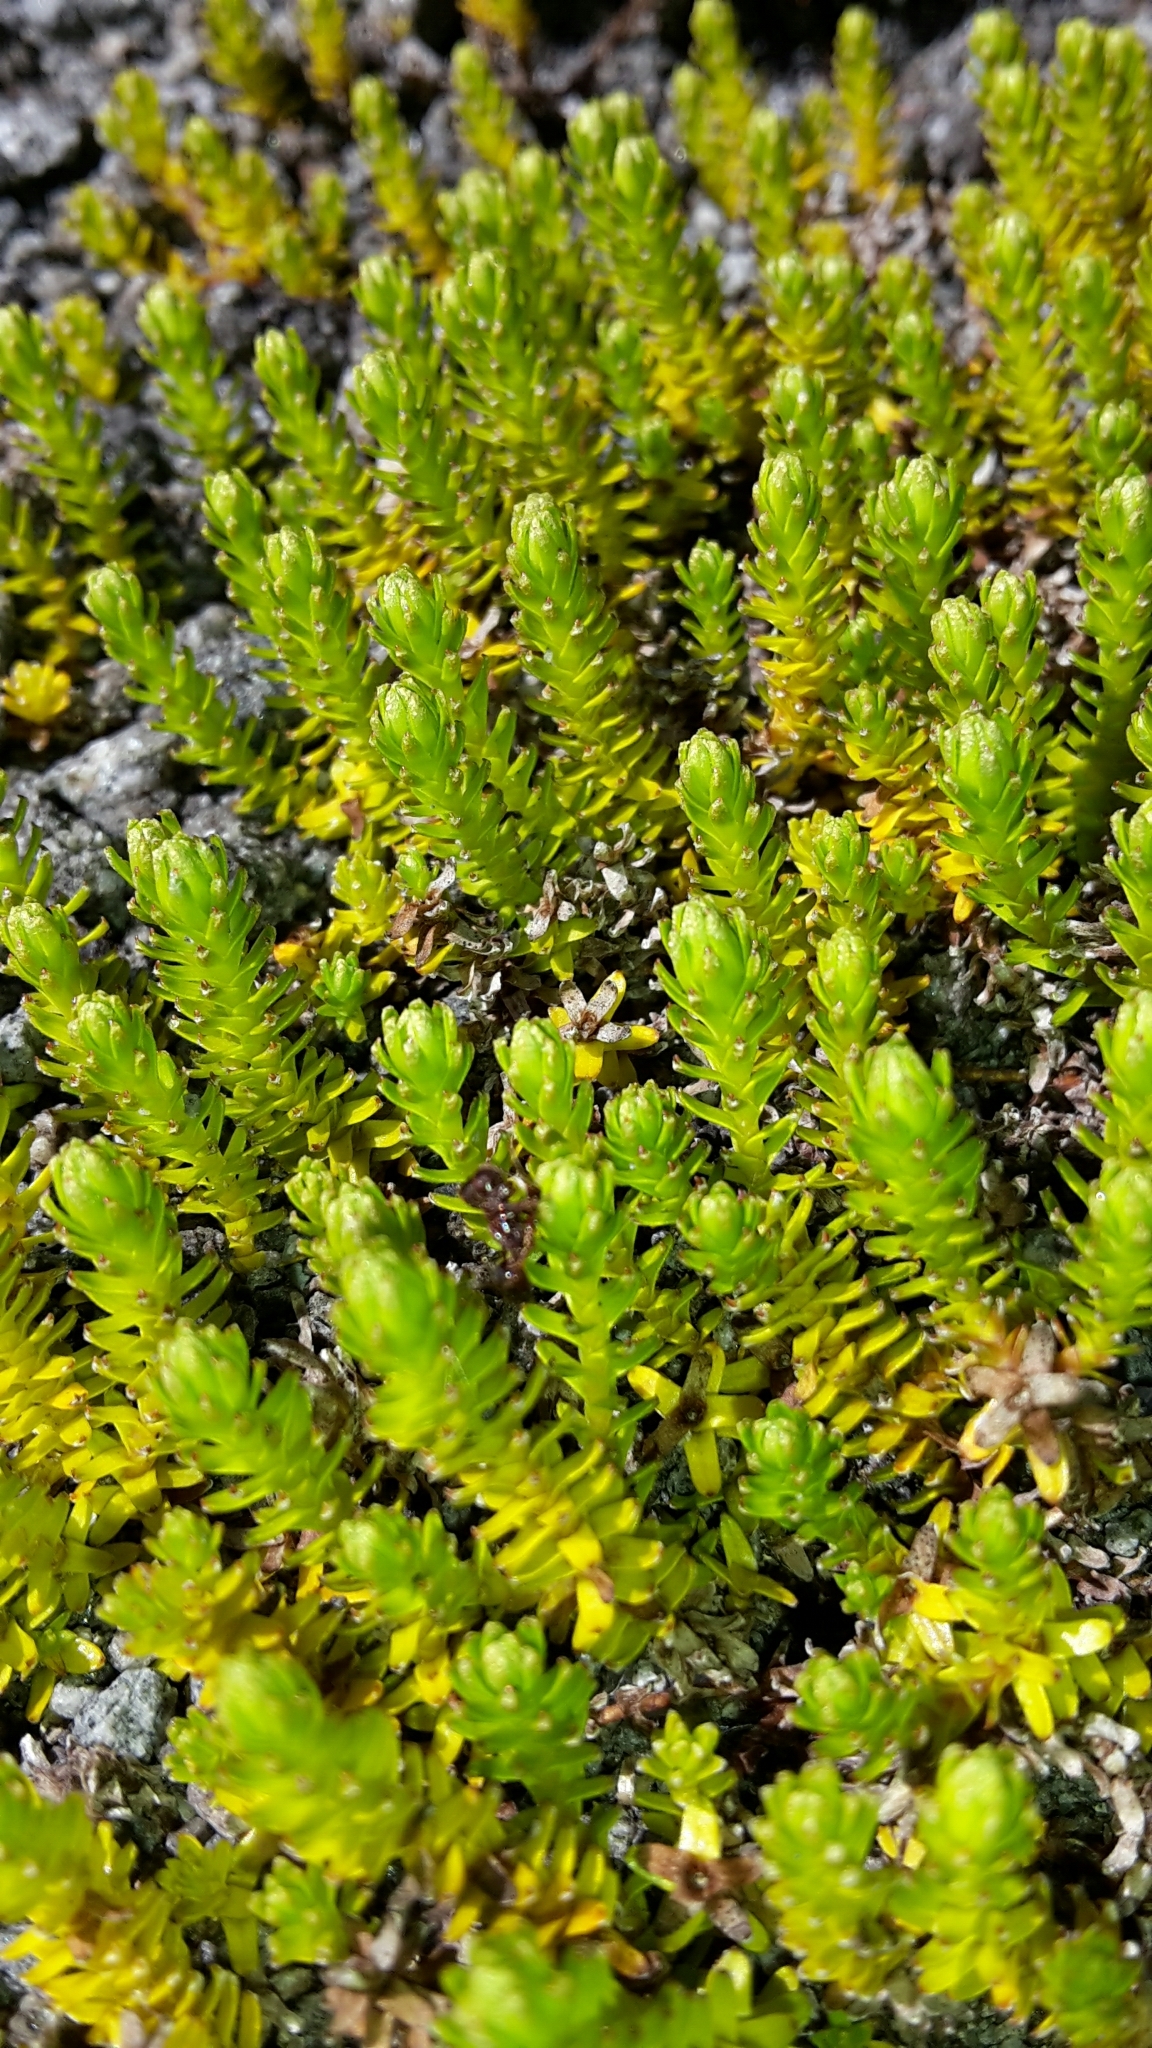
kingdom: Plantae
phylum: Tracheophyta
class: Magnoliopsida
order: Asterales
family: Asteraceae
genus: Raoulia
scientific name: Raoulia glabra
